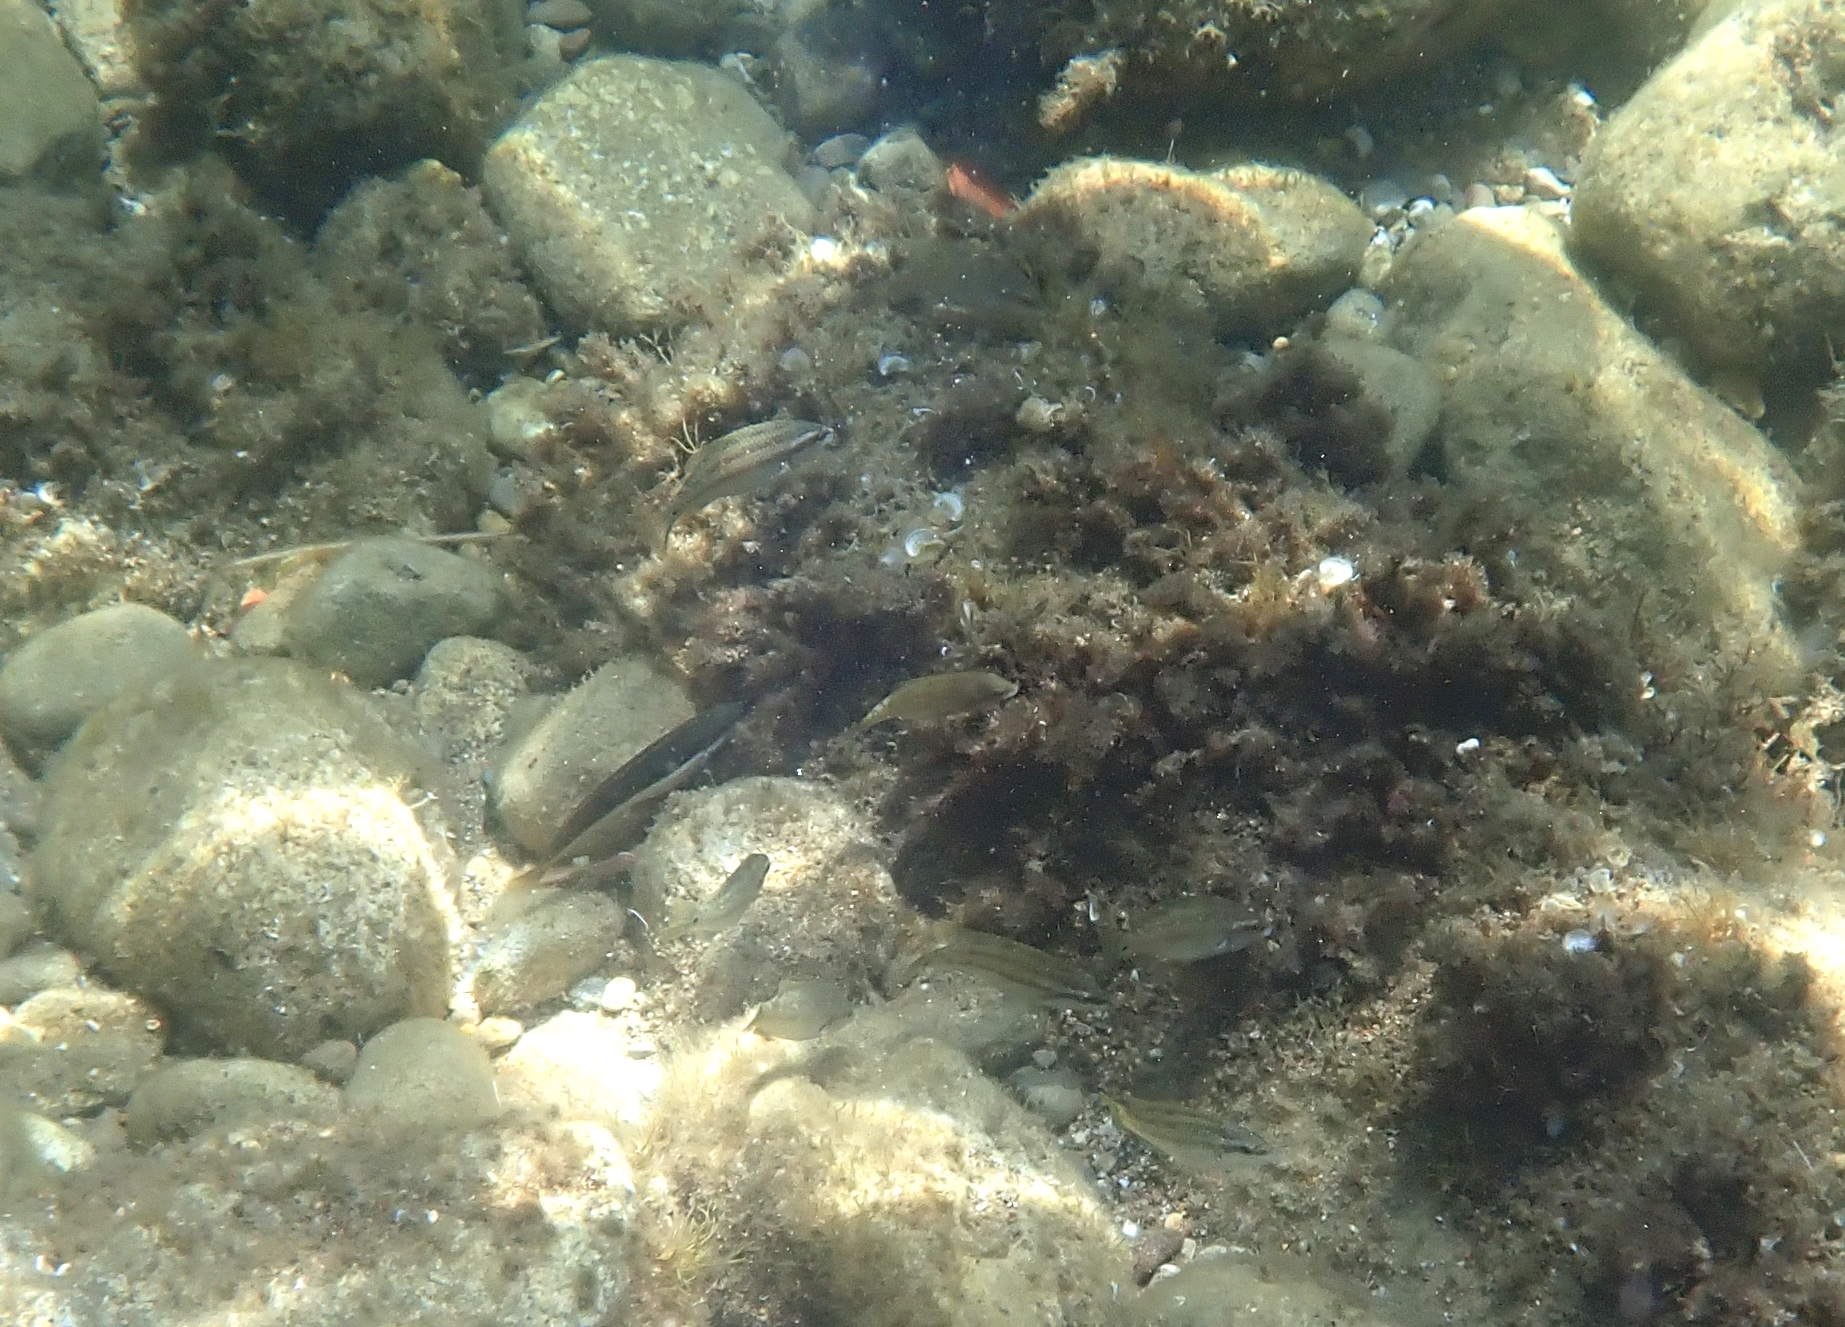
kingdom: Animalia
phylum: Chordata
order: Perciformes
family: Labridae
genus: Symphodus
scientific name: Symphodus tinca
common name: Peacock wrasse
